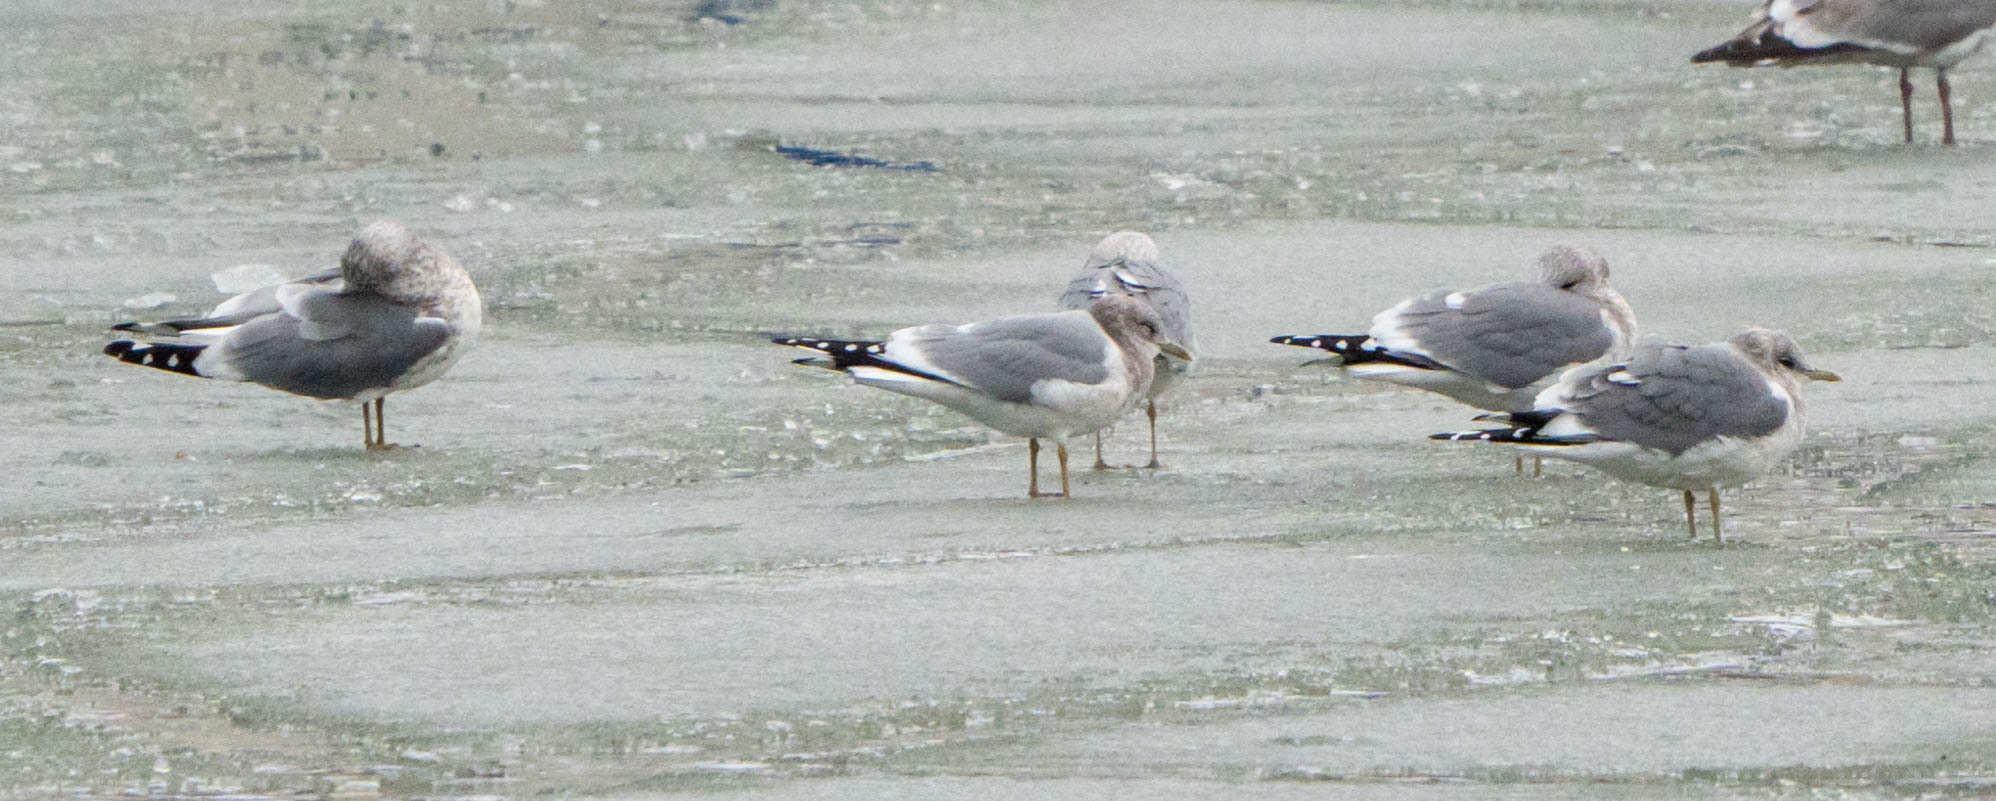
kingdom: Animalia
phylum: Chordata
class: Aves
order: Charadriiformes
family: Laridae
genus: Larus
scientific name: Larus brachyrhynchus
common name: Short-billed gull
